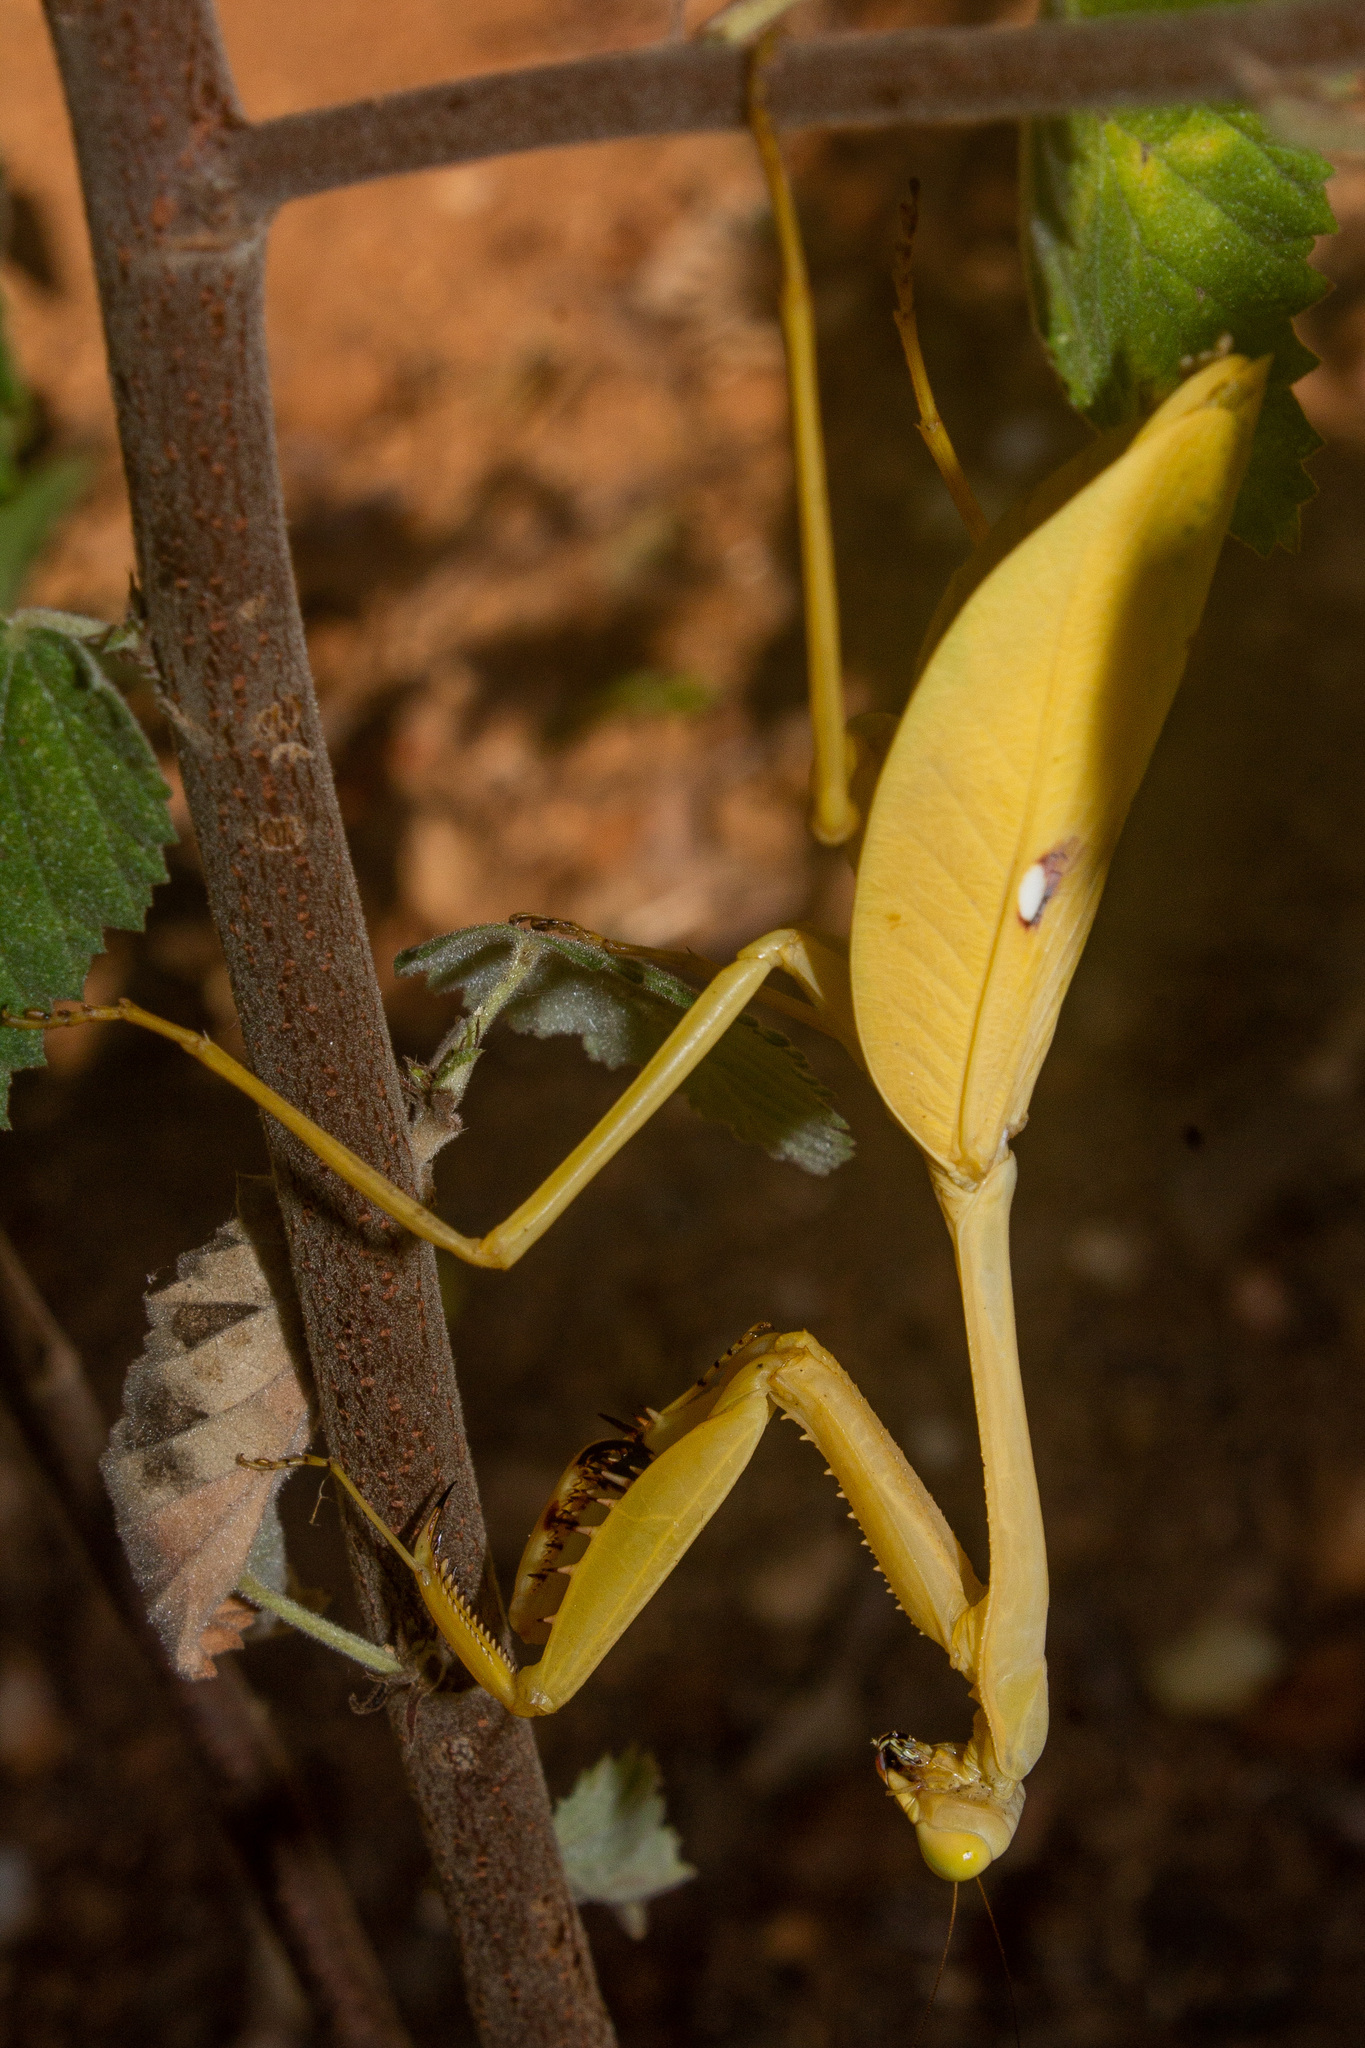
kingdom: Animalia
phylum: Arthropoda
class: Insecta
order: Mantodea
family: Mantidae
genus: Stagmatoptera
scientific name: Stagmatoptera septentrionalis
